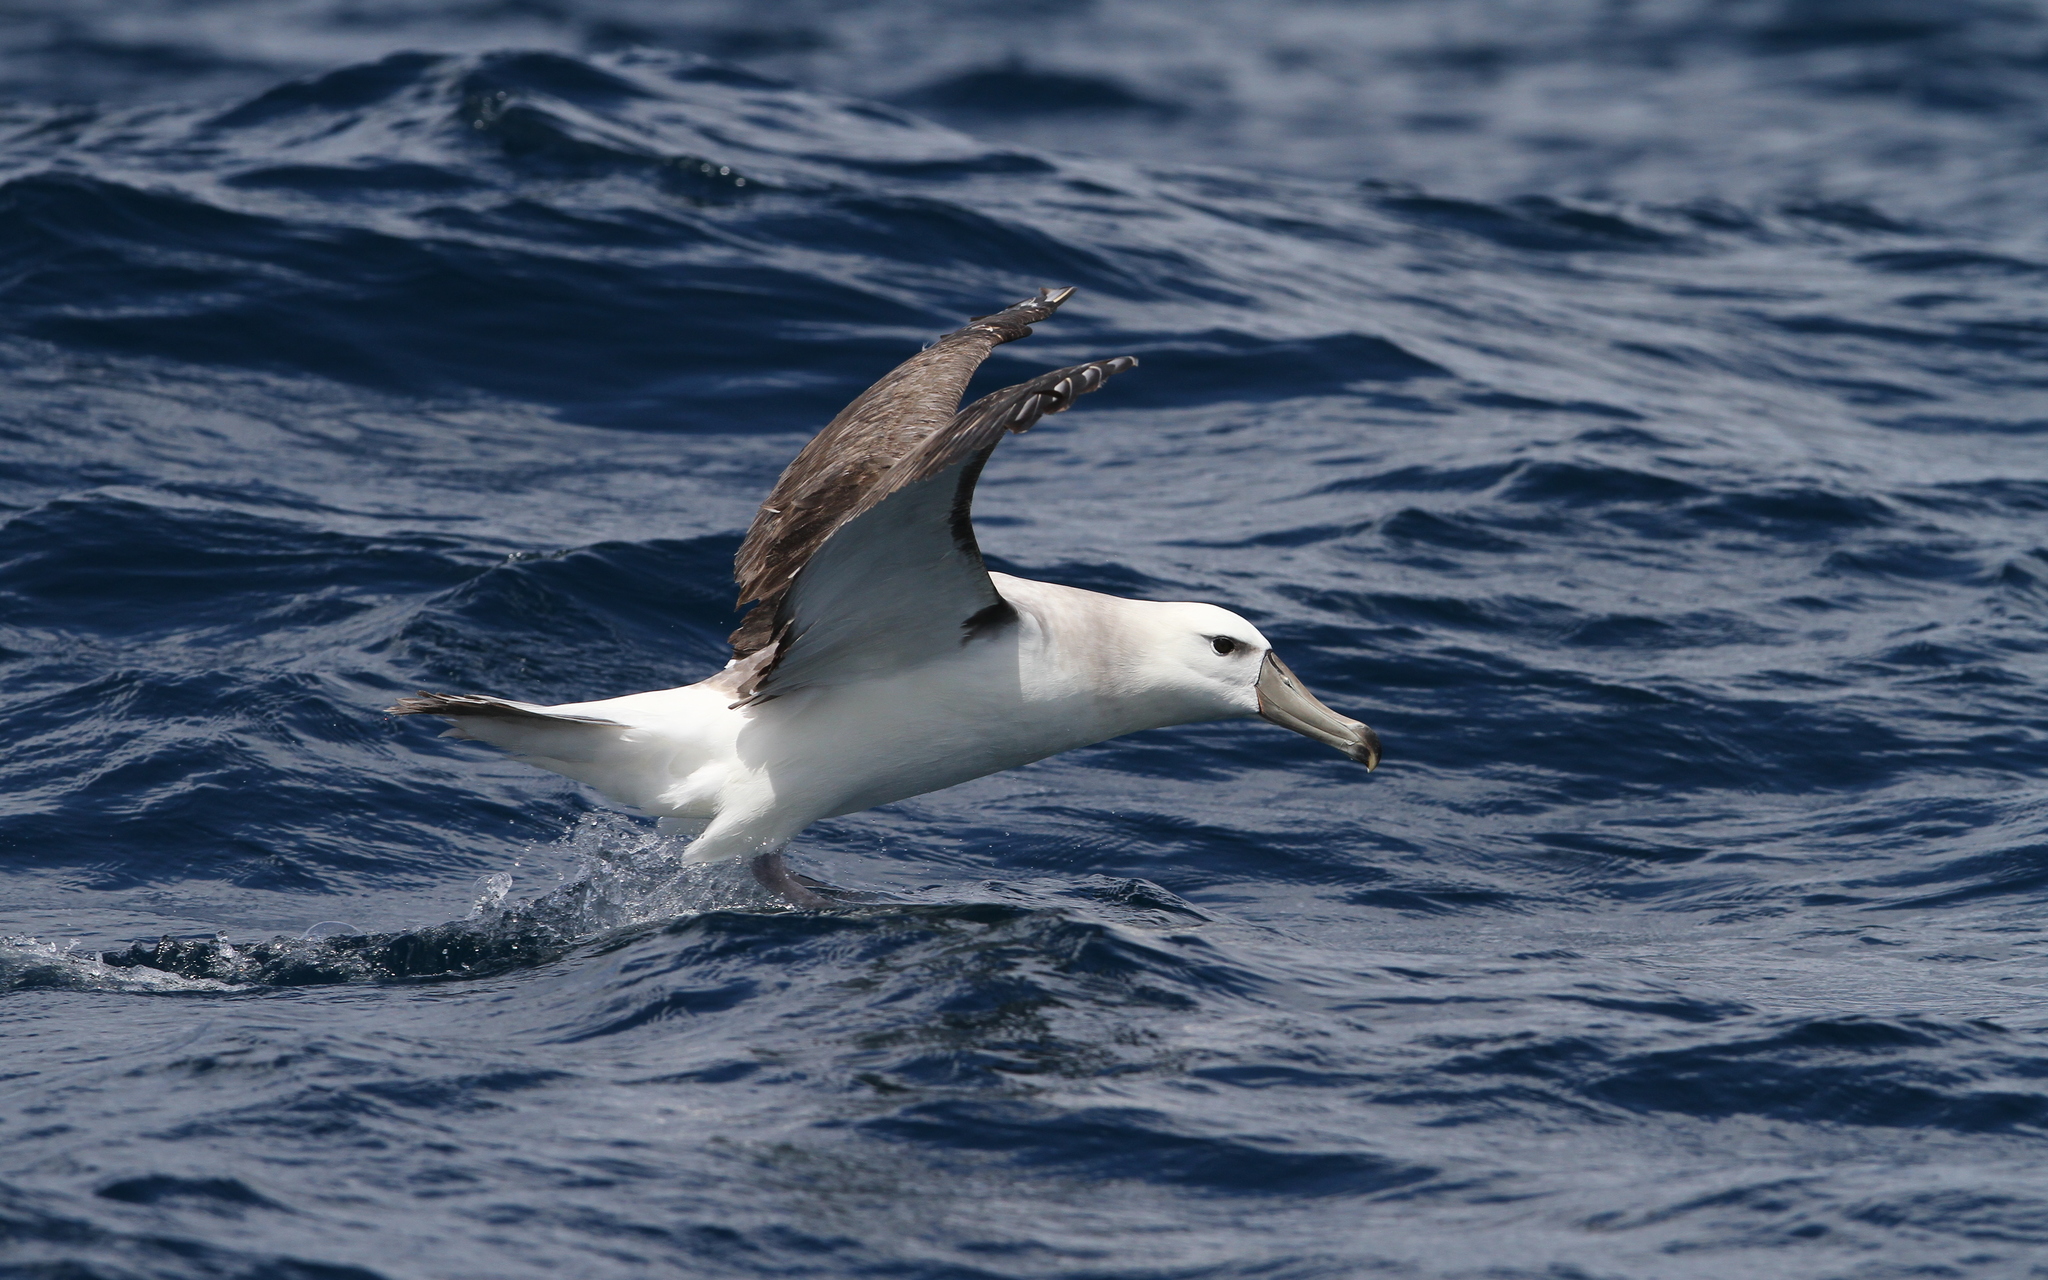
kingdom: Animalia
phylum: Chordata
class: Aves
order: Procellariiformes
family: Diomedeidae
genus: Thalassarche
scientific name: Thalassarche cauta
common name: Shy albatross
